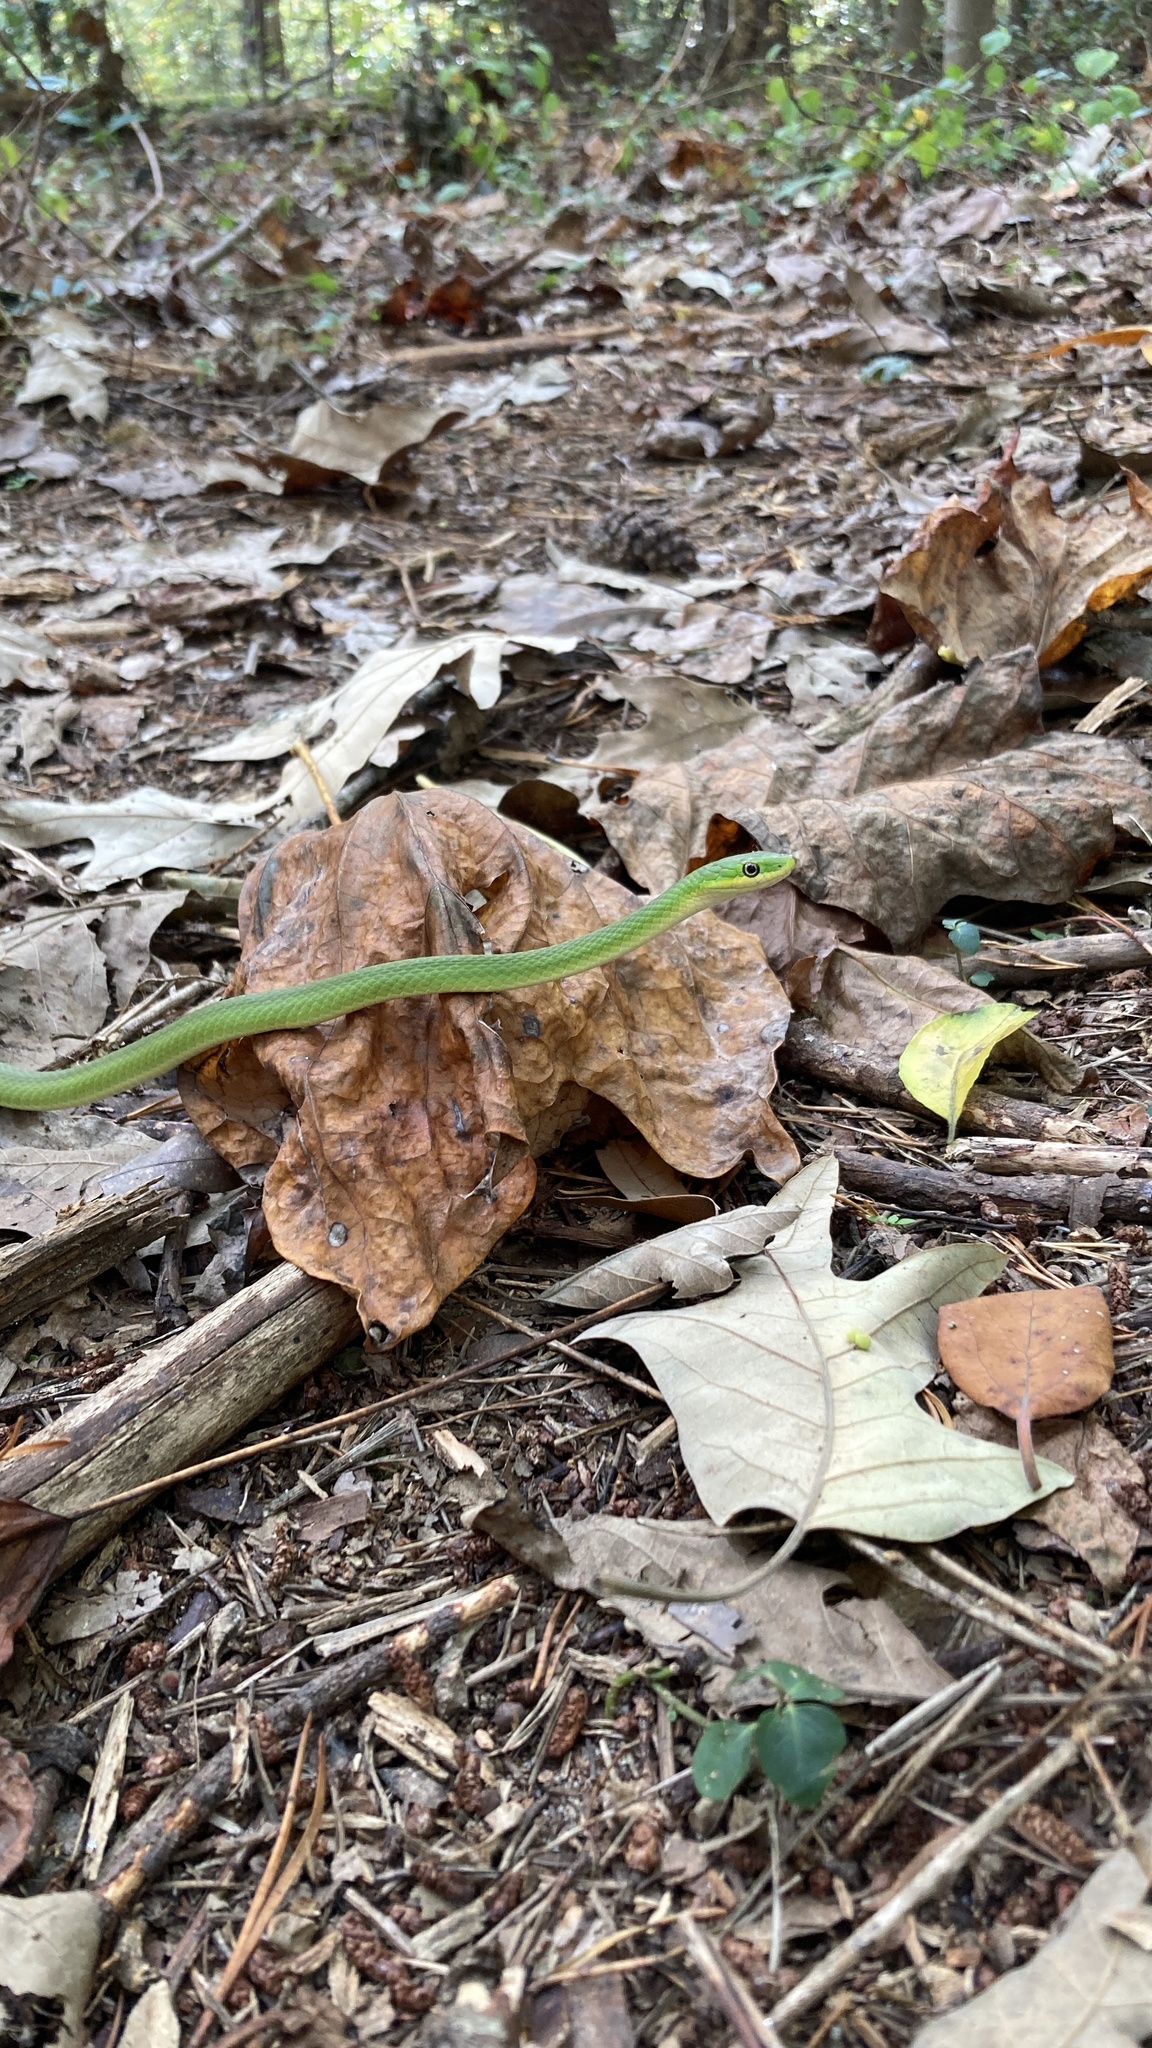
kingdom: Animalia
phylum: Chordata
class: Squamata
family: Colubridae
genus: Opheodrys
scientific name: Opheodrys aestivus
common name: Rough greensnake
